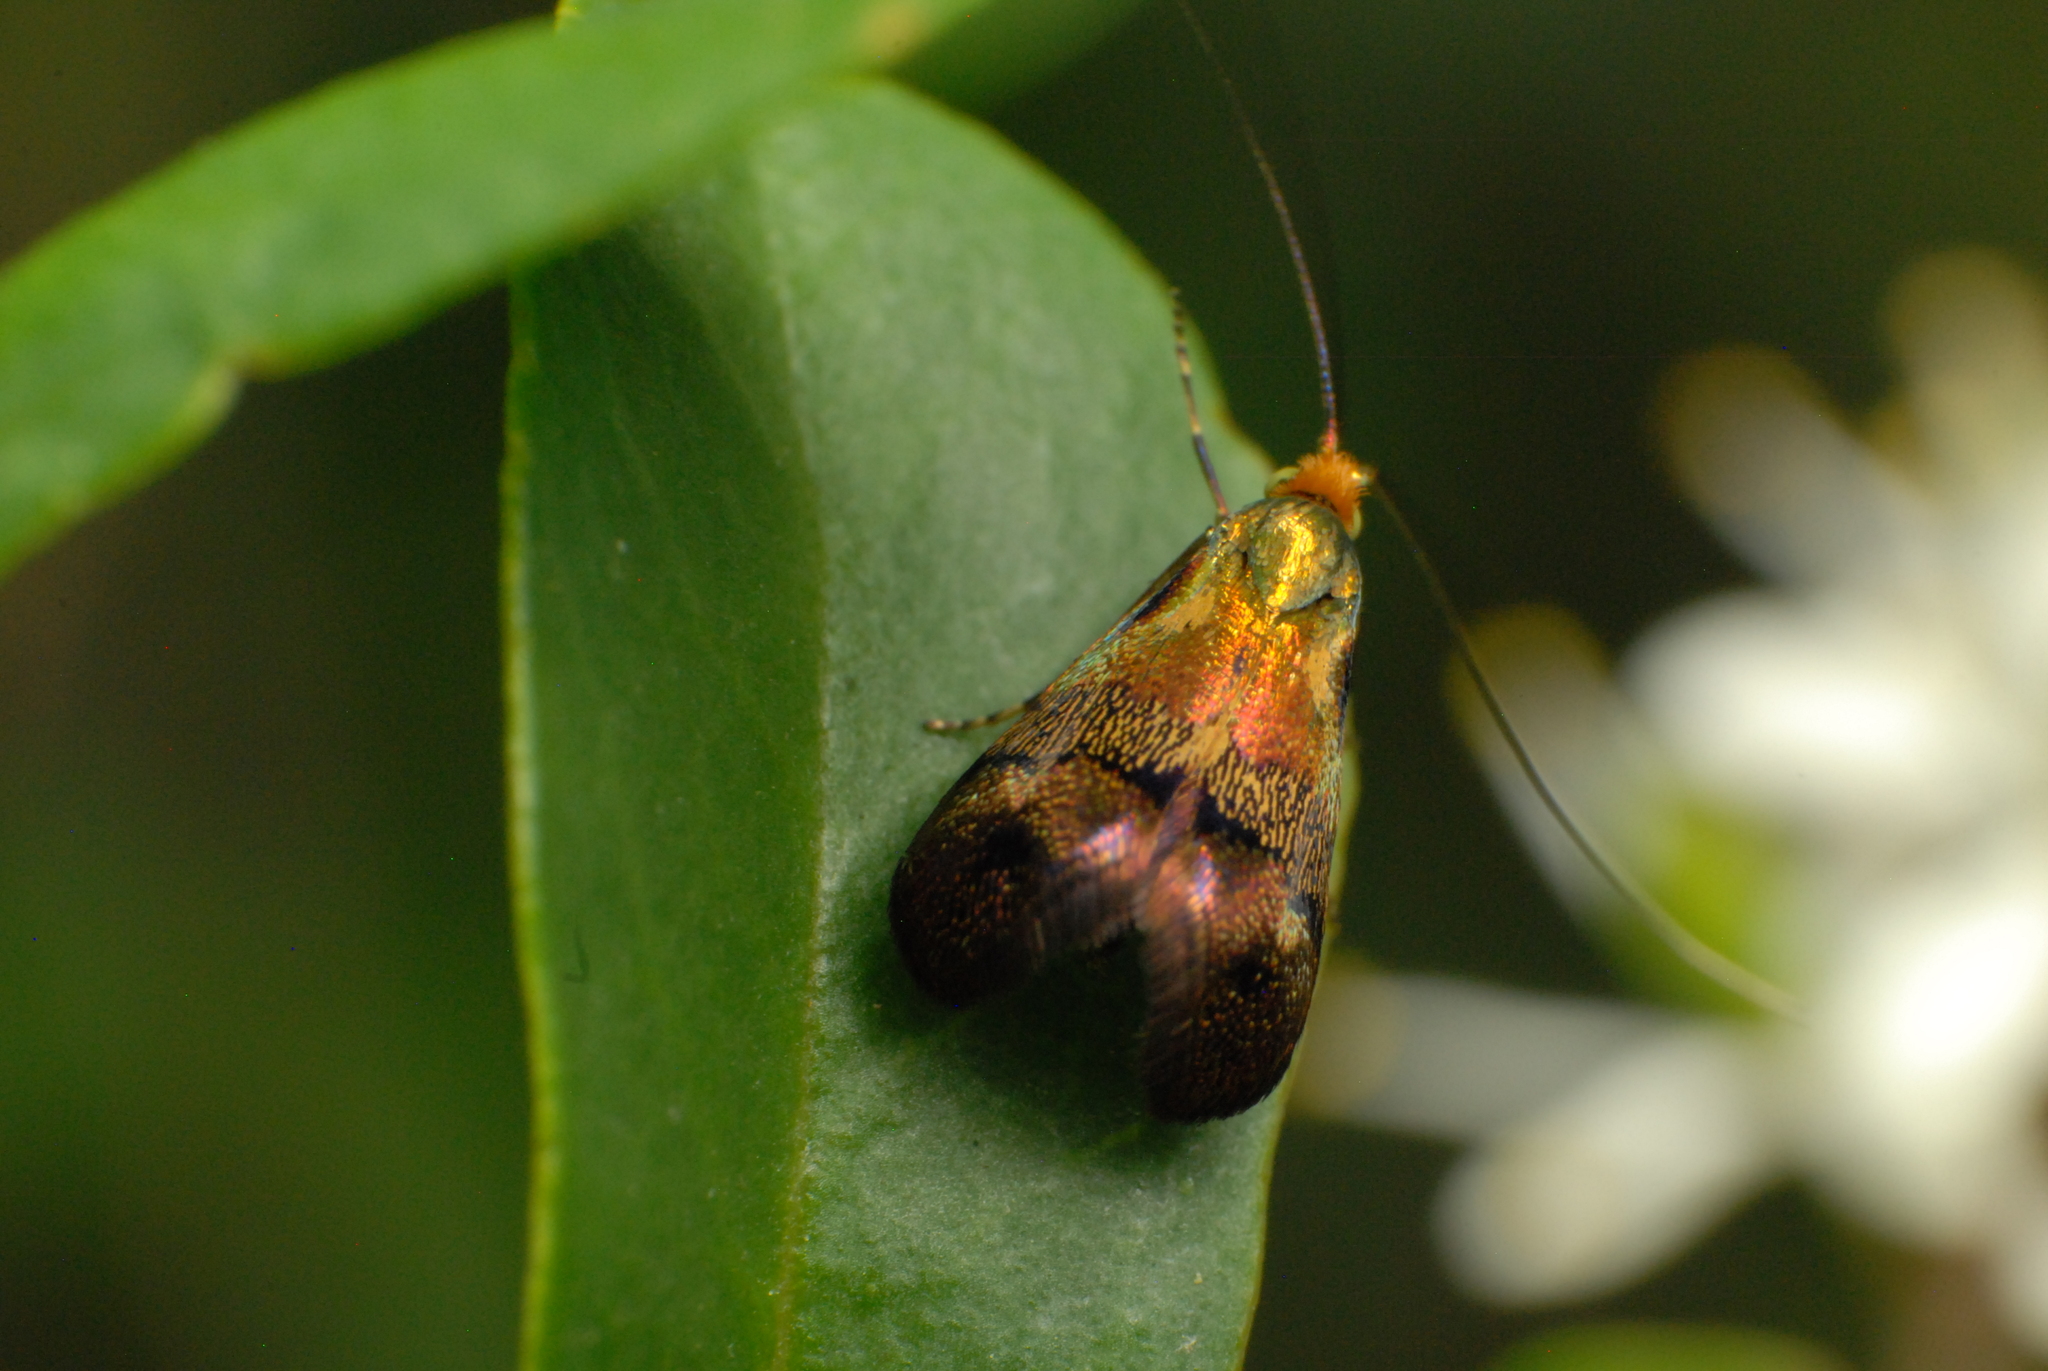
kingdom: Animalia
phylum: Arthropoda
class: Insecta
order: Lepidoptera
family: Adelidae
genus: Nemophora
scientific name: Nemophora laurella
